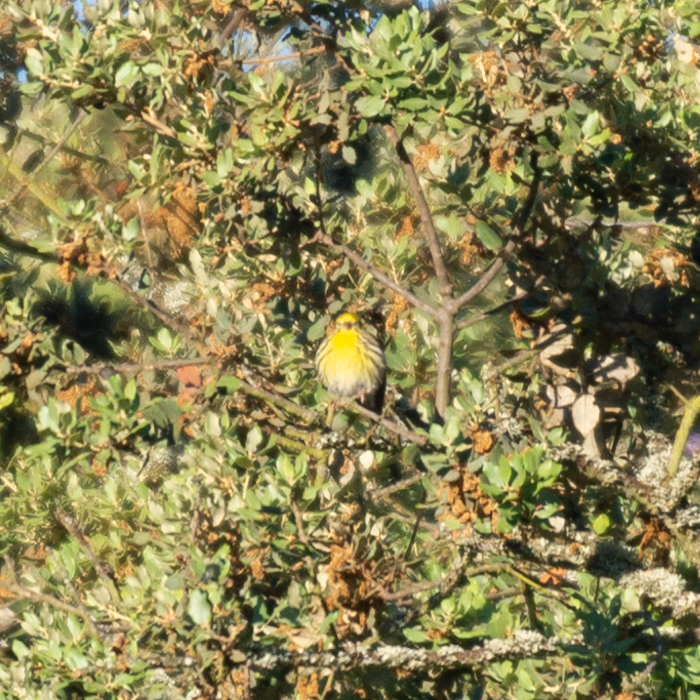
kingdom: Animalia
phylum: Chordata
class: Aves
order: Passeriformes
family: Fringillidae
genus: Serinus
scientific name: Serinus serinus
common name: European serin
